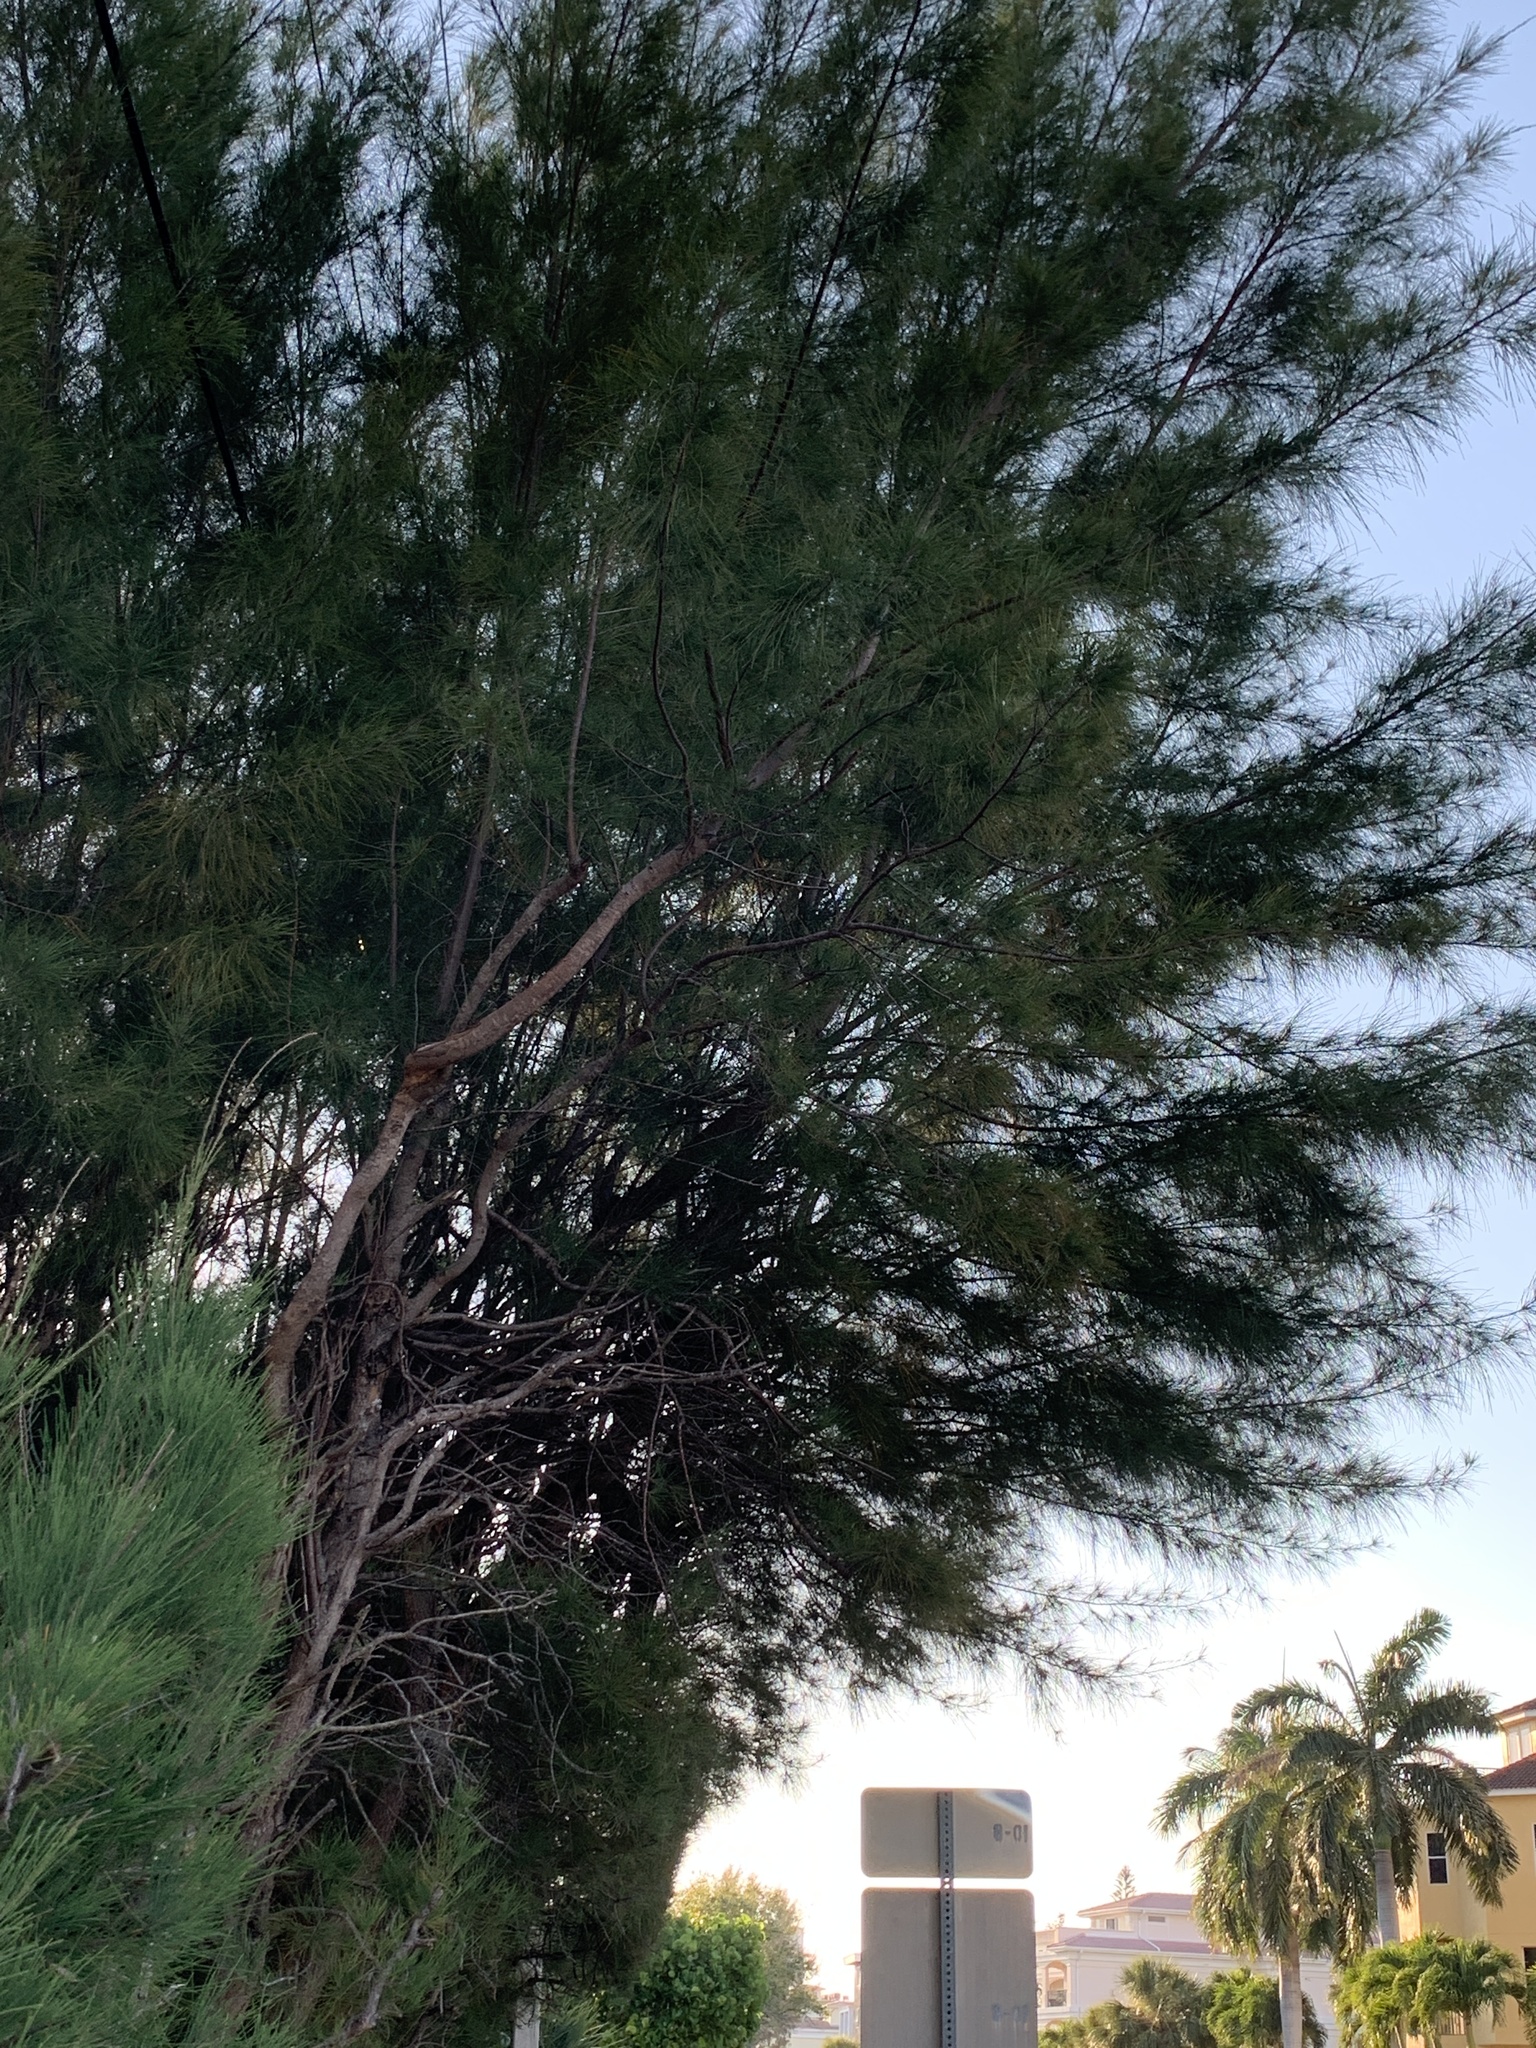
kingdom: Plantae
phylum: Tracheophyta
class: Magnoliopsida
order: Fagales
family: Casuarinaceae
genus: Casuarina
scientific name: Casuarina equisetifolia
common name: Beach sheoak
